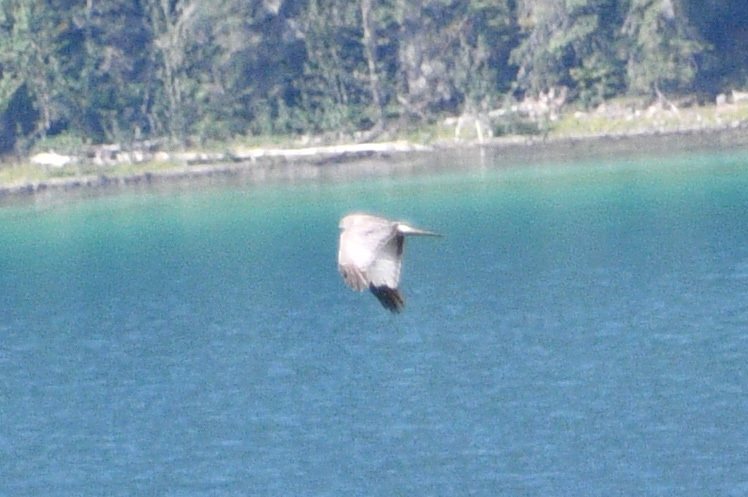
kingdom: Animalia
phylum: Chordata
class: Aves
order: Accipitriformes
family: Accipitridae
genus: Circus
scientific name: Circus cyaneus
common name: Hen harrier
